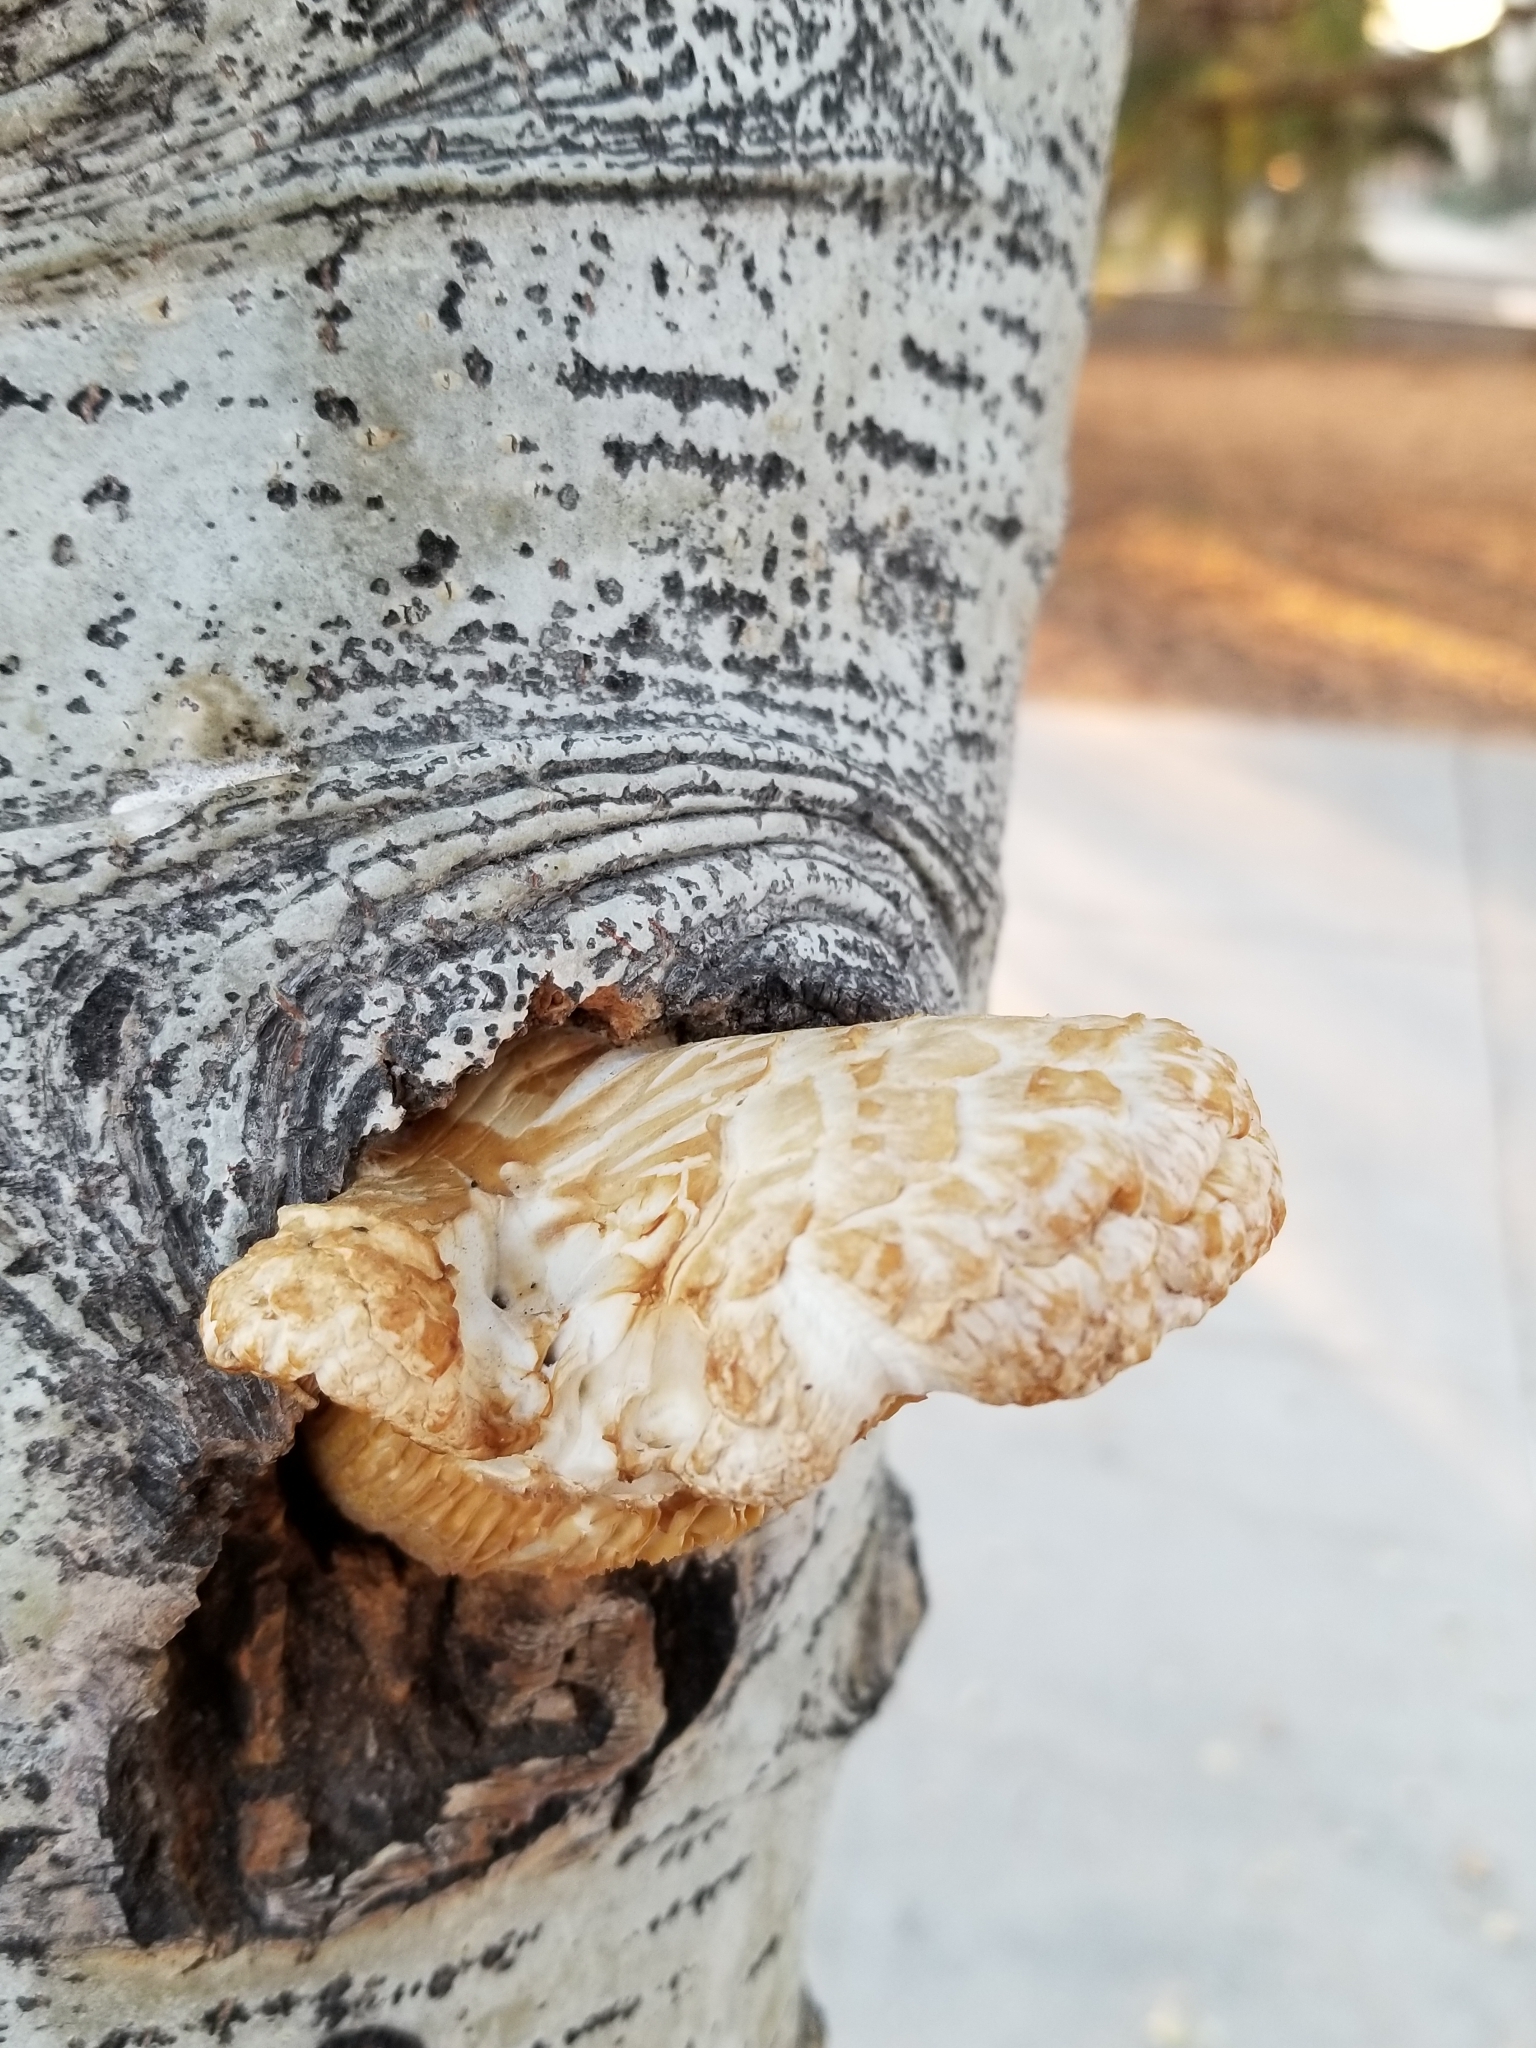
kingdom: Fungi
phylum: Basidiomycota
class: Agaricomycetes
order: Gloeophyllales
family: Gloeophyllaceae
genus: Neolentinus
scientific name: Neolentinus lepideus
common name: Scaly sawgill
